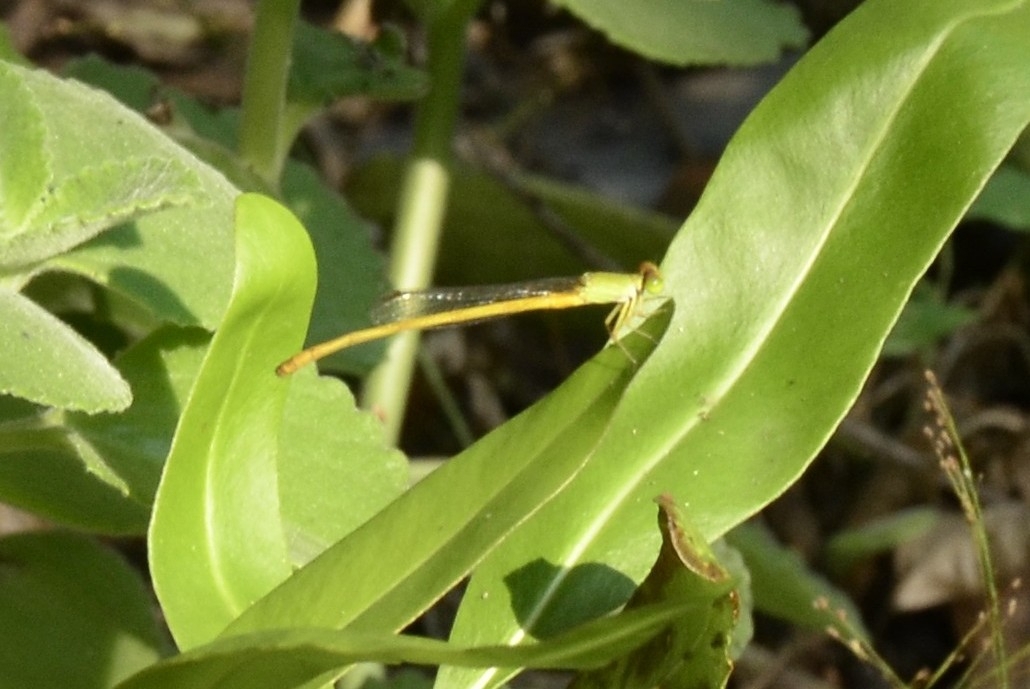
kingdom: Animalia
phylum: Arthropoda
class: Insecta
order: Odonata
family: Coenagrionidae
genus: Ceriagrion
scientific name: Ceriagrion coromandelianum
